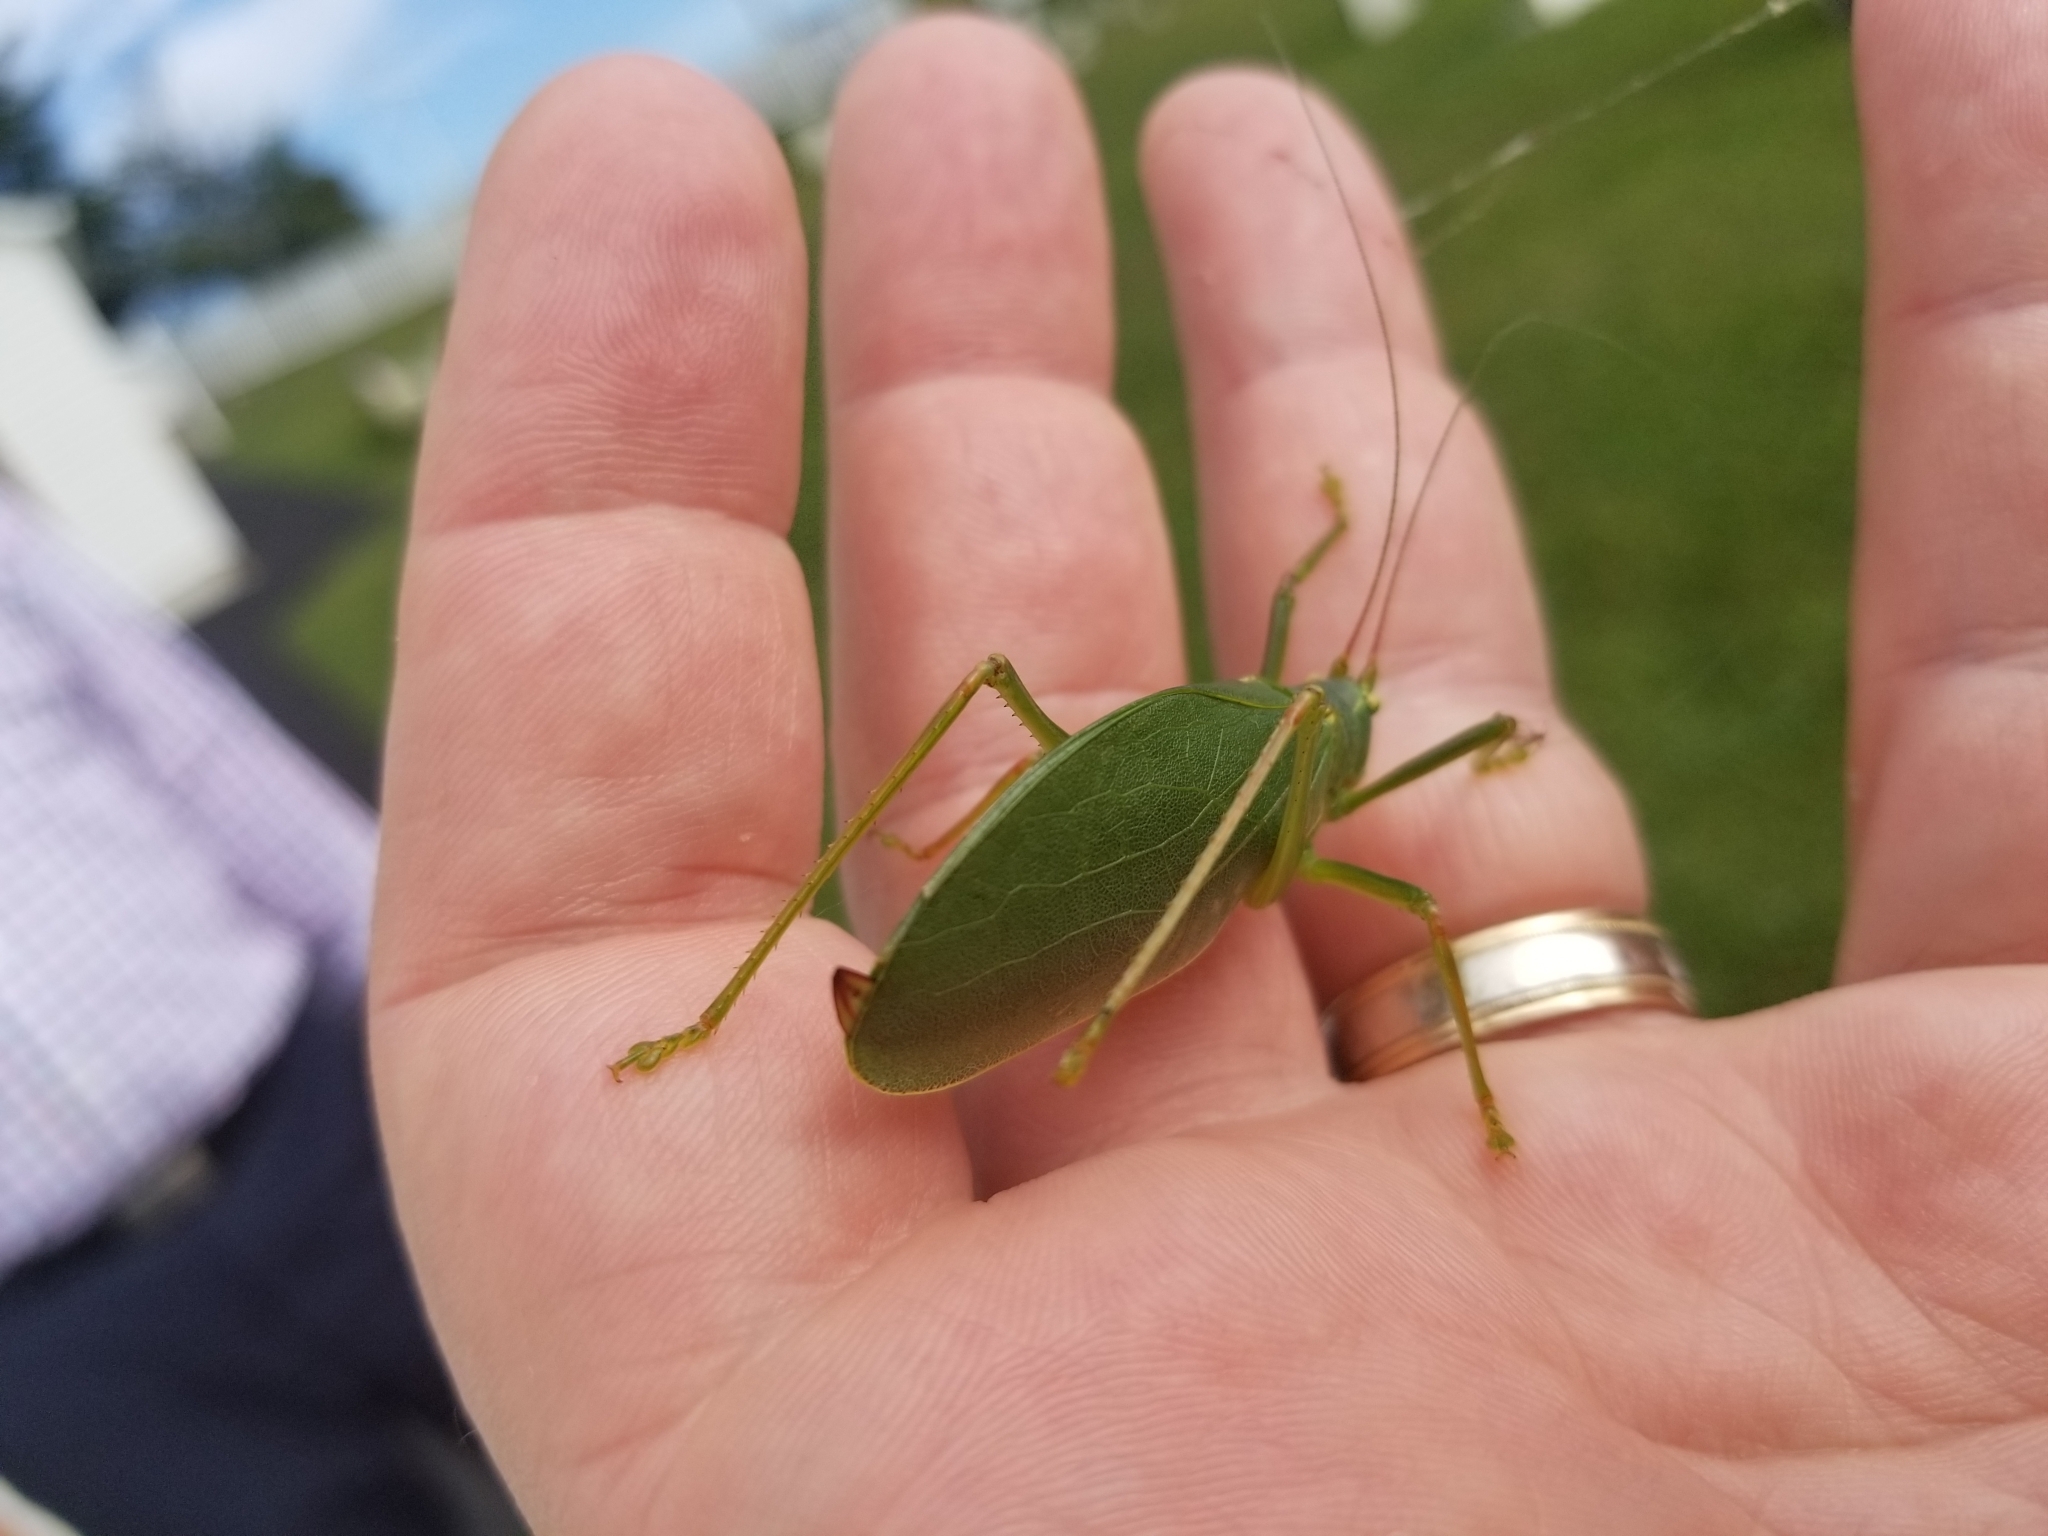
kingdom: Animalia
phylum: Arthropoda
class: Insecta
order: Orthoptera
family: Tettigoniidae
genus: Pterophylla
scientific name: Pterophylla camellifolia
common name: Common true katydid
